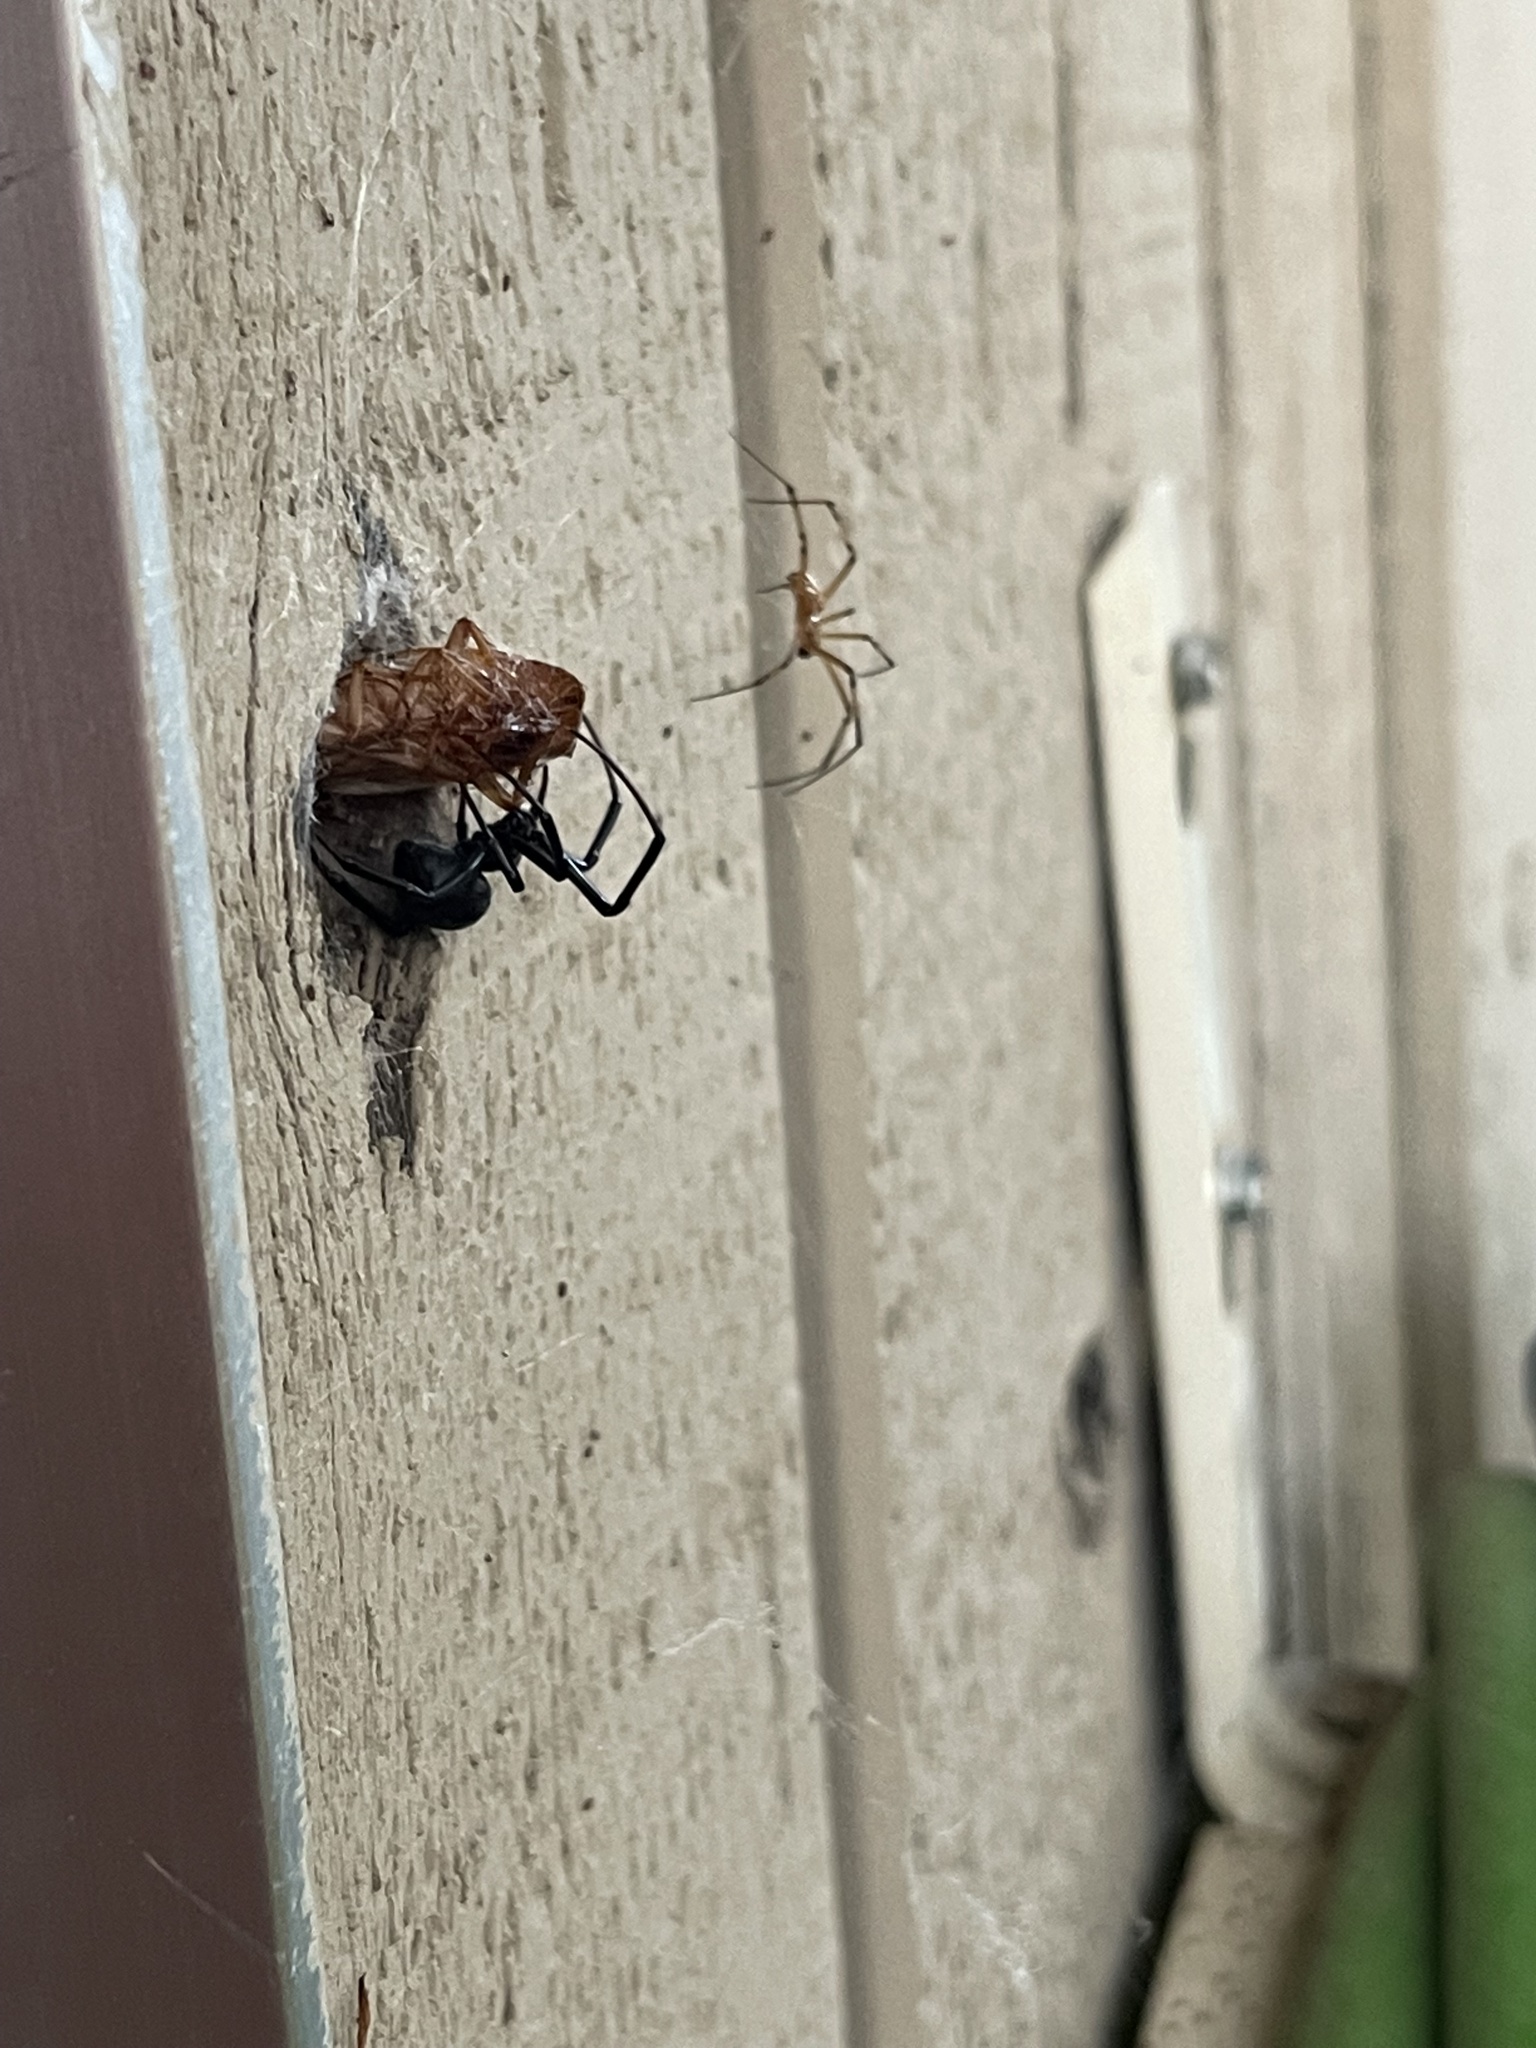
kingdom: Animalia
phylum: Arthropoda
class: Arachnida
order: Araneae
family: Theridiidae
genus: Latrodectus
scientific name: Latrodectus hesperus
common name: Western black widow
